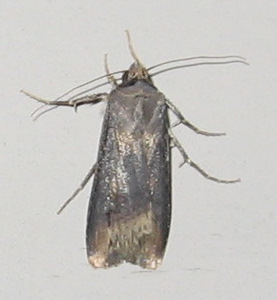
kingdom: Animalia
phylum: Arthropoda
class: Insecta
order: Lepidoptera
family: Noctuidae
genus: Agrotis
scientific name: Agrotis ipsilon
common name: Dark sword-grass
